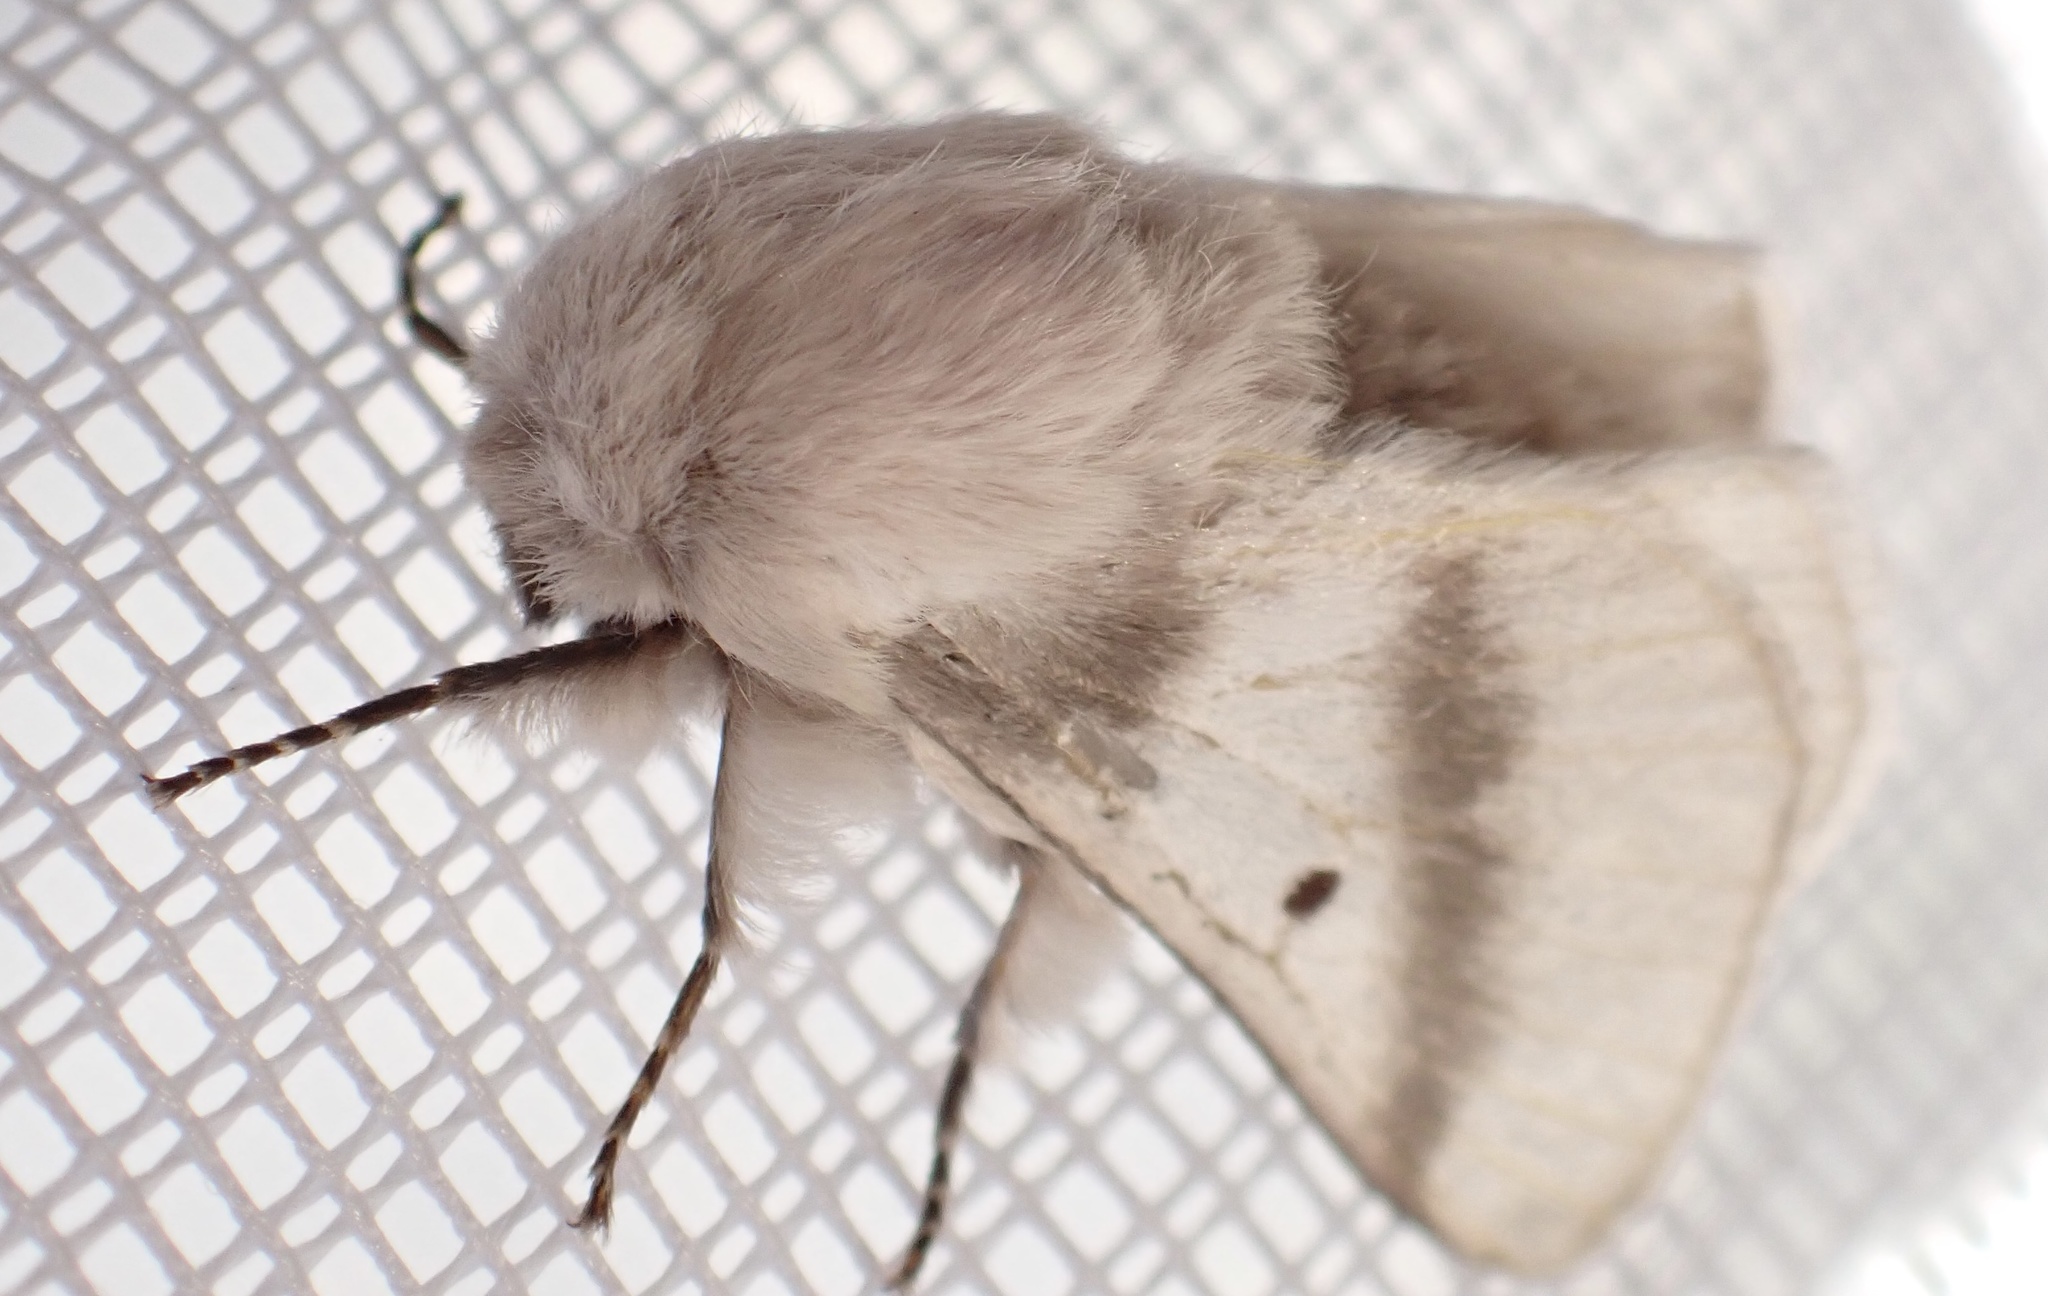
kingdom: Animalia
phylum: Arthropoda
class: Insecta
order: Lepidoptera
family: Lasiocampidae
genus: Bombycomorpha
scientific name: Bombycomorpha bifascia
